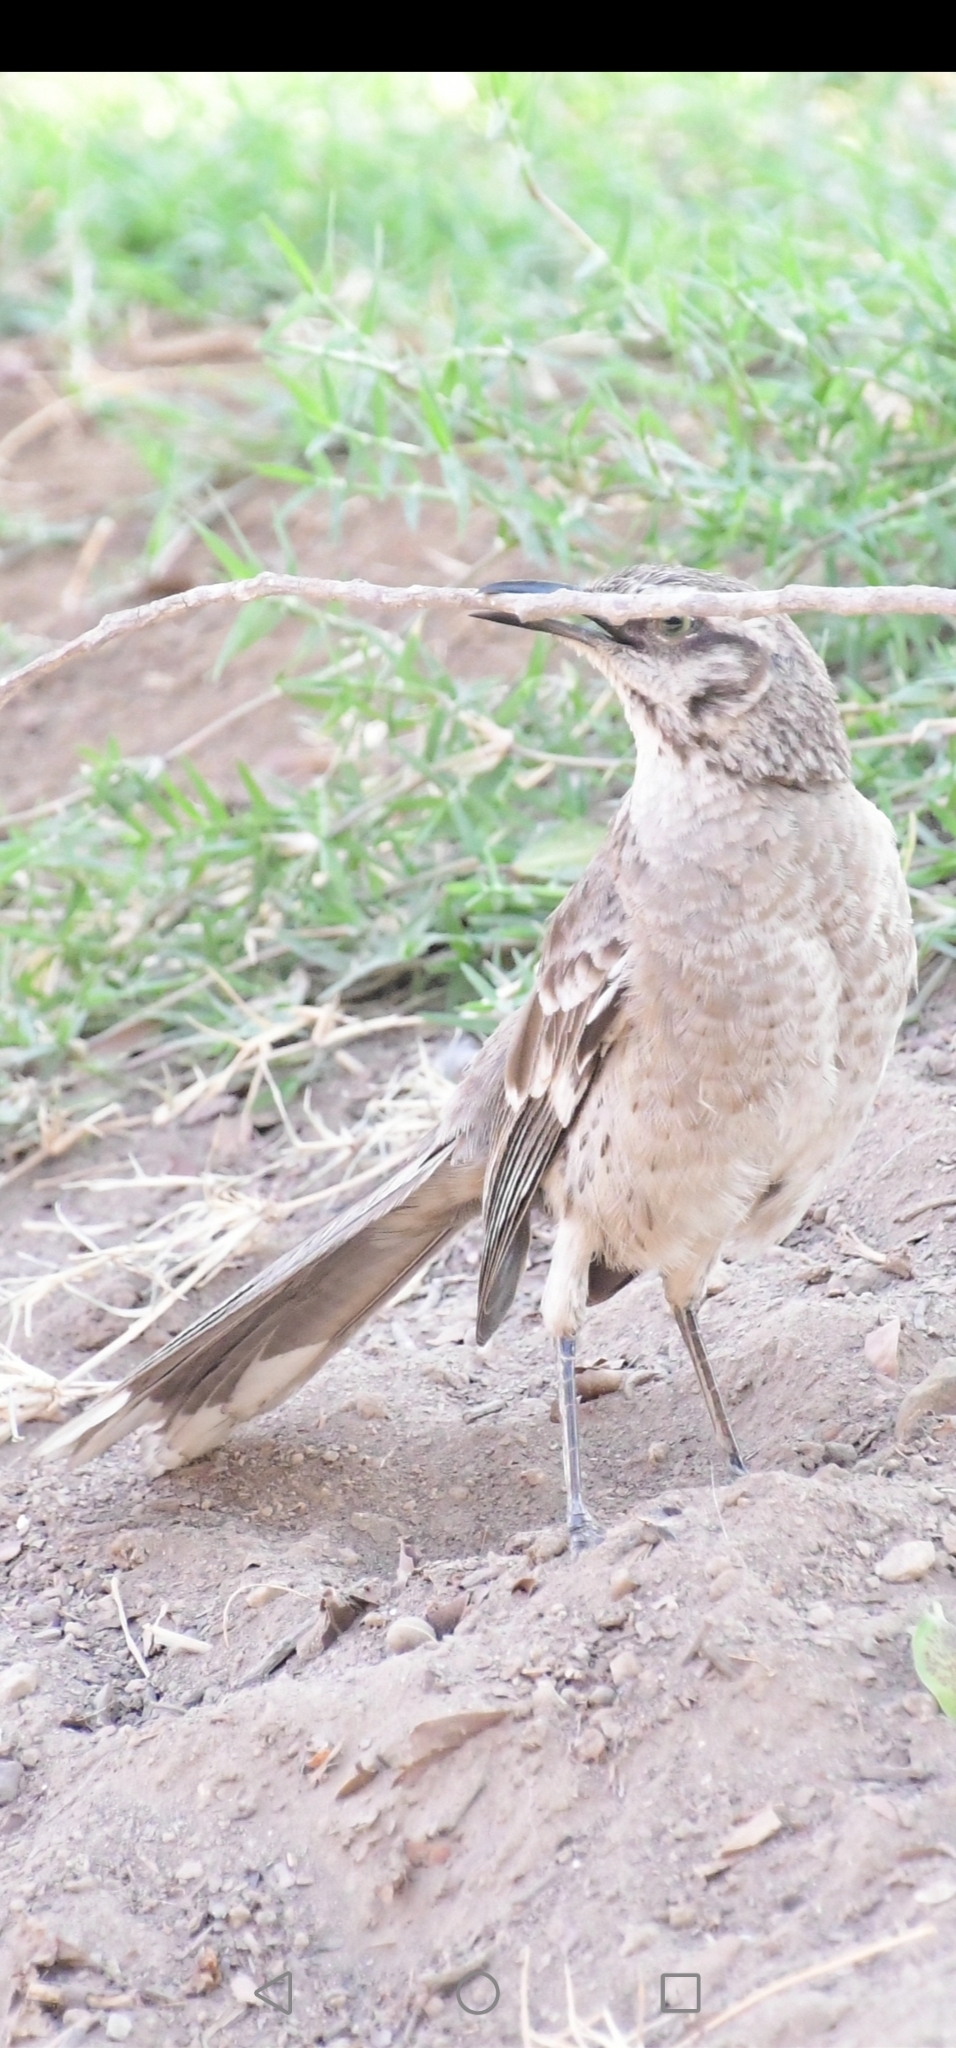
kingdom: Animalia
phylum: Chordata
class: Aves
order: Passeriformes
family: Mimidae
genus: Mimus
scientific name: Mimus longicaudatus
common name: Long-tailed mockingbird
